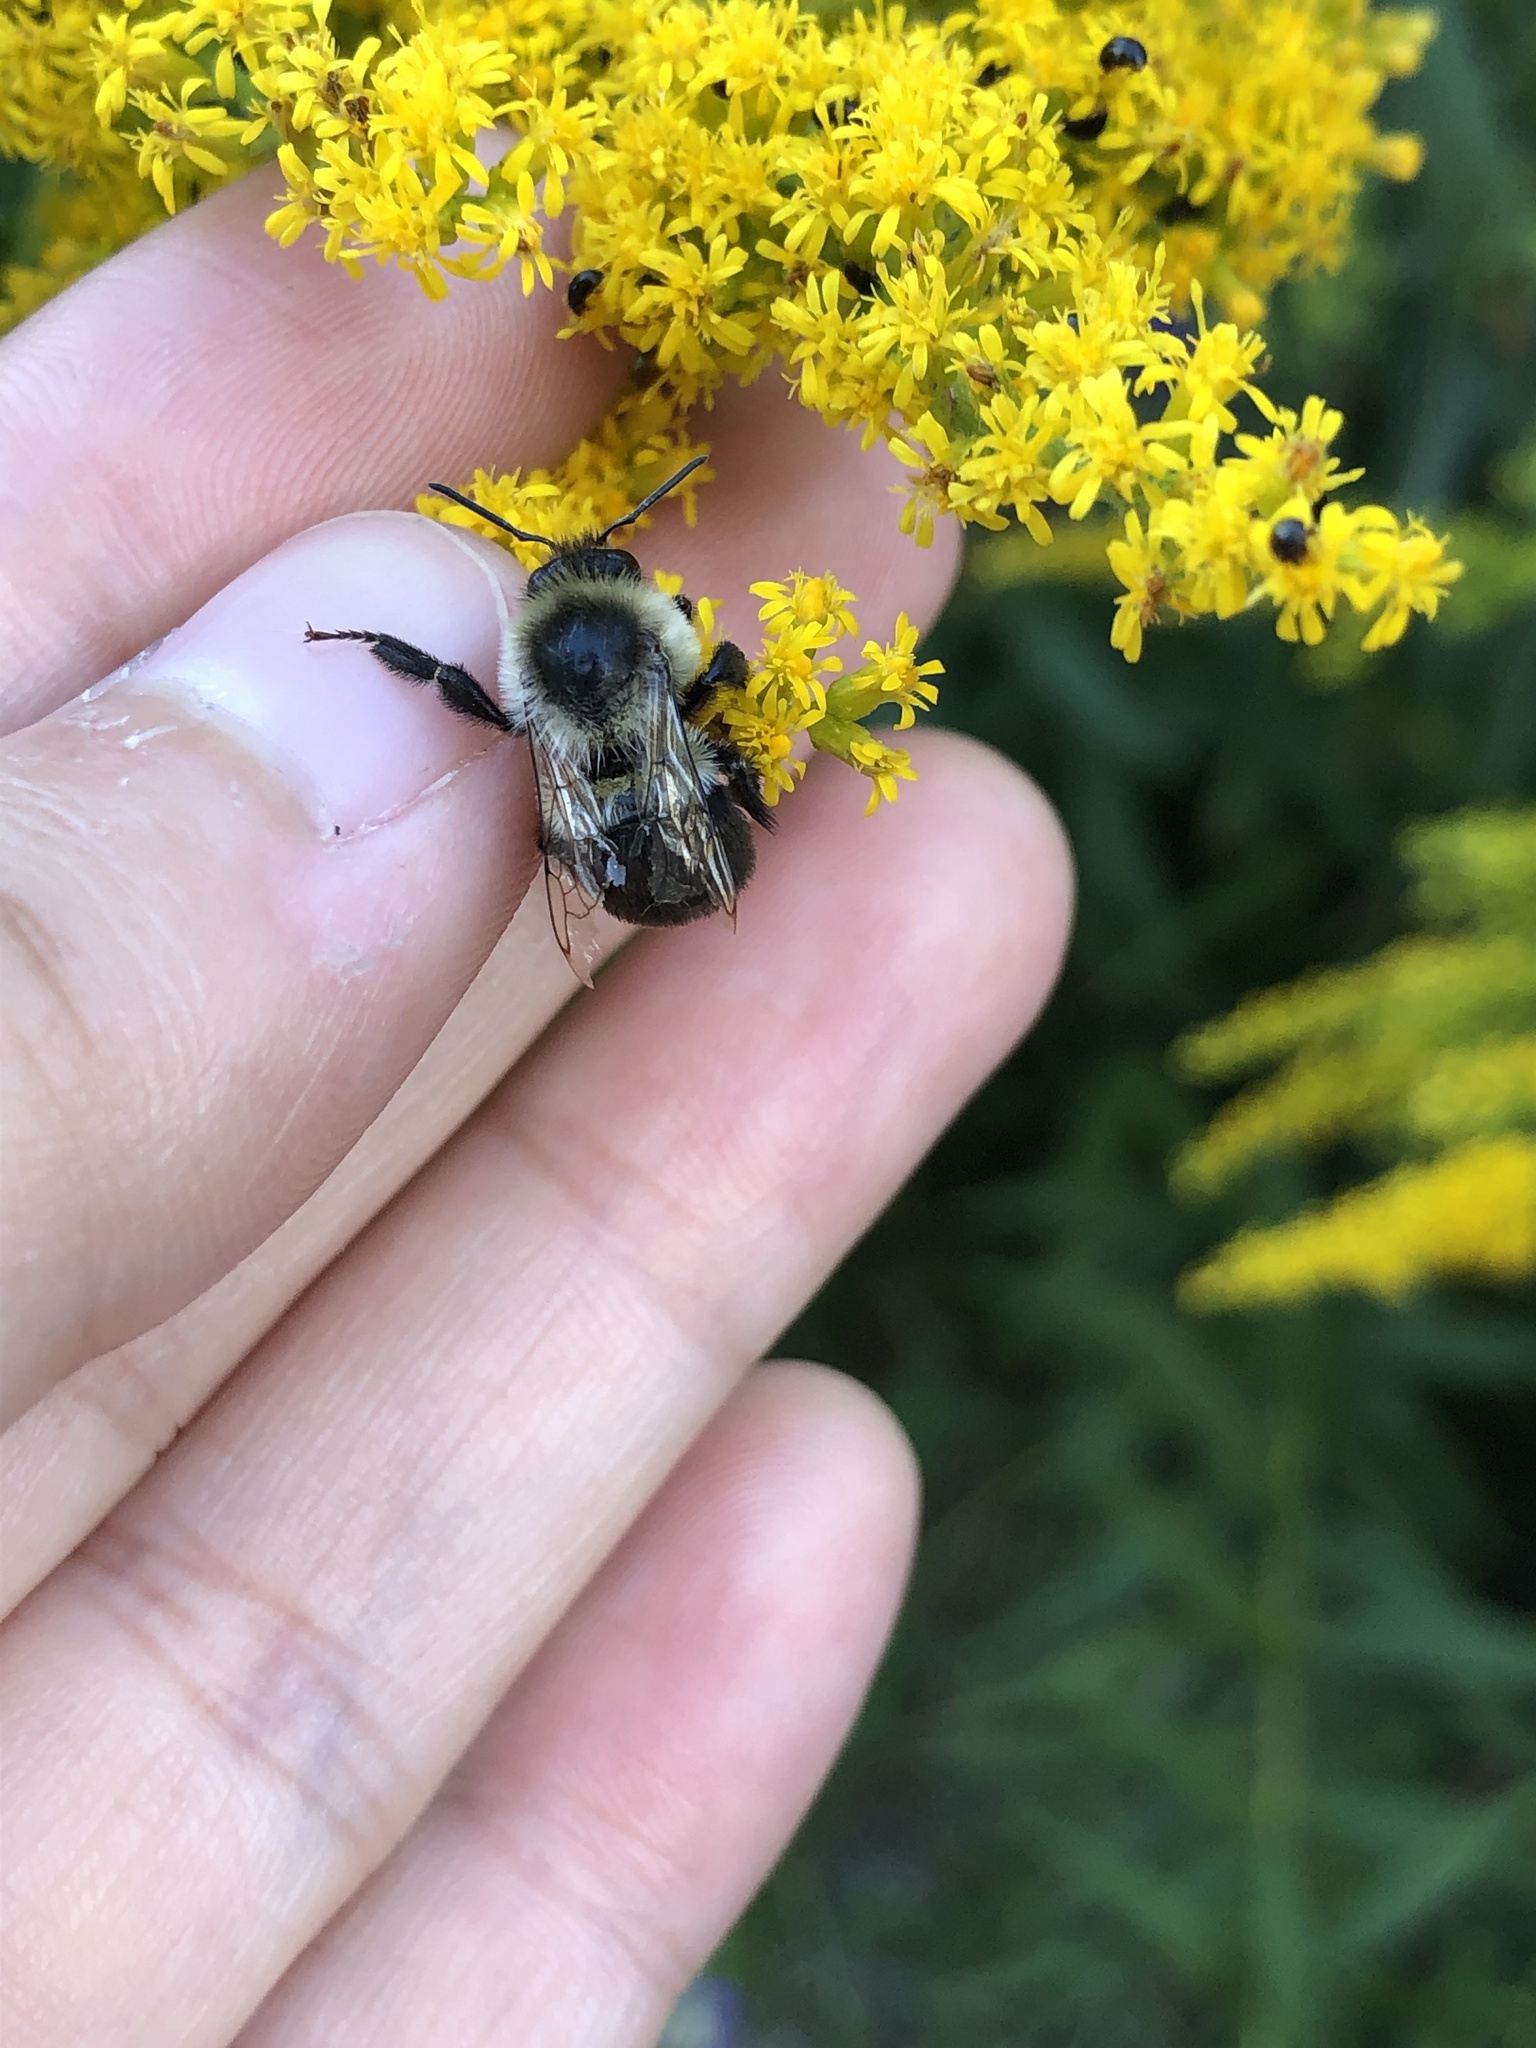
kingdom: Animalia
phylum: Arthropoda
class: Insecta
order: Hymenoptera
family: Apidae
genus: Bombus
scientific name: Bombus impatiens
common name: Common eastern bumble bee
